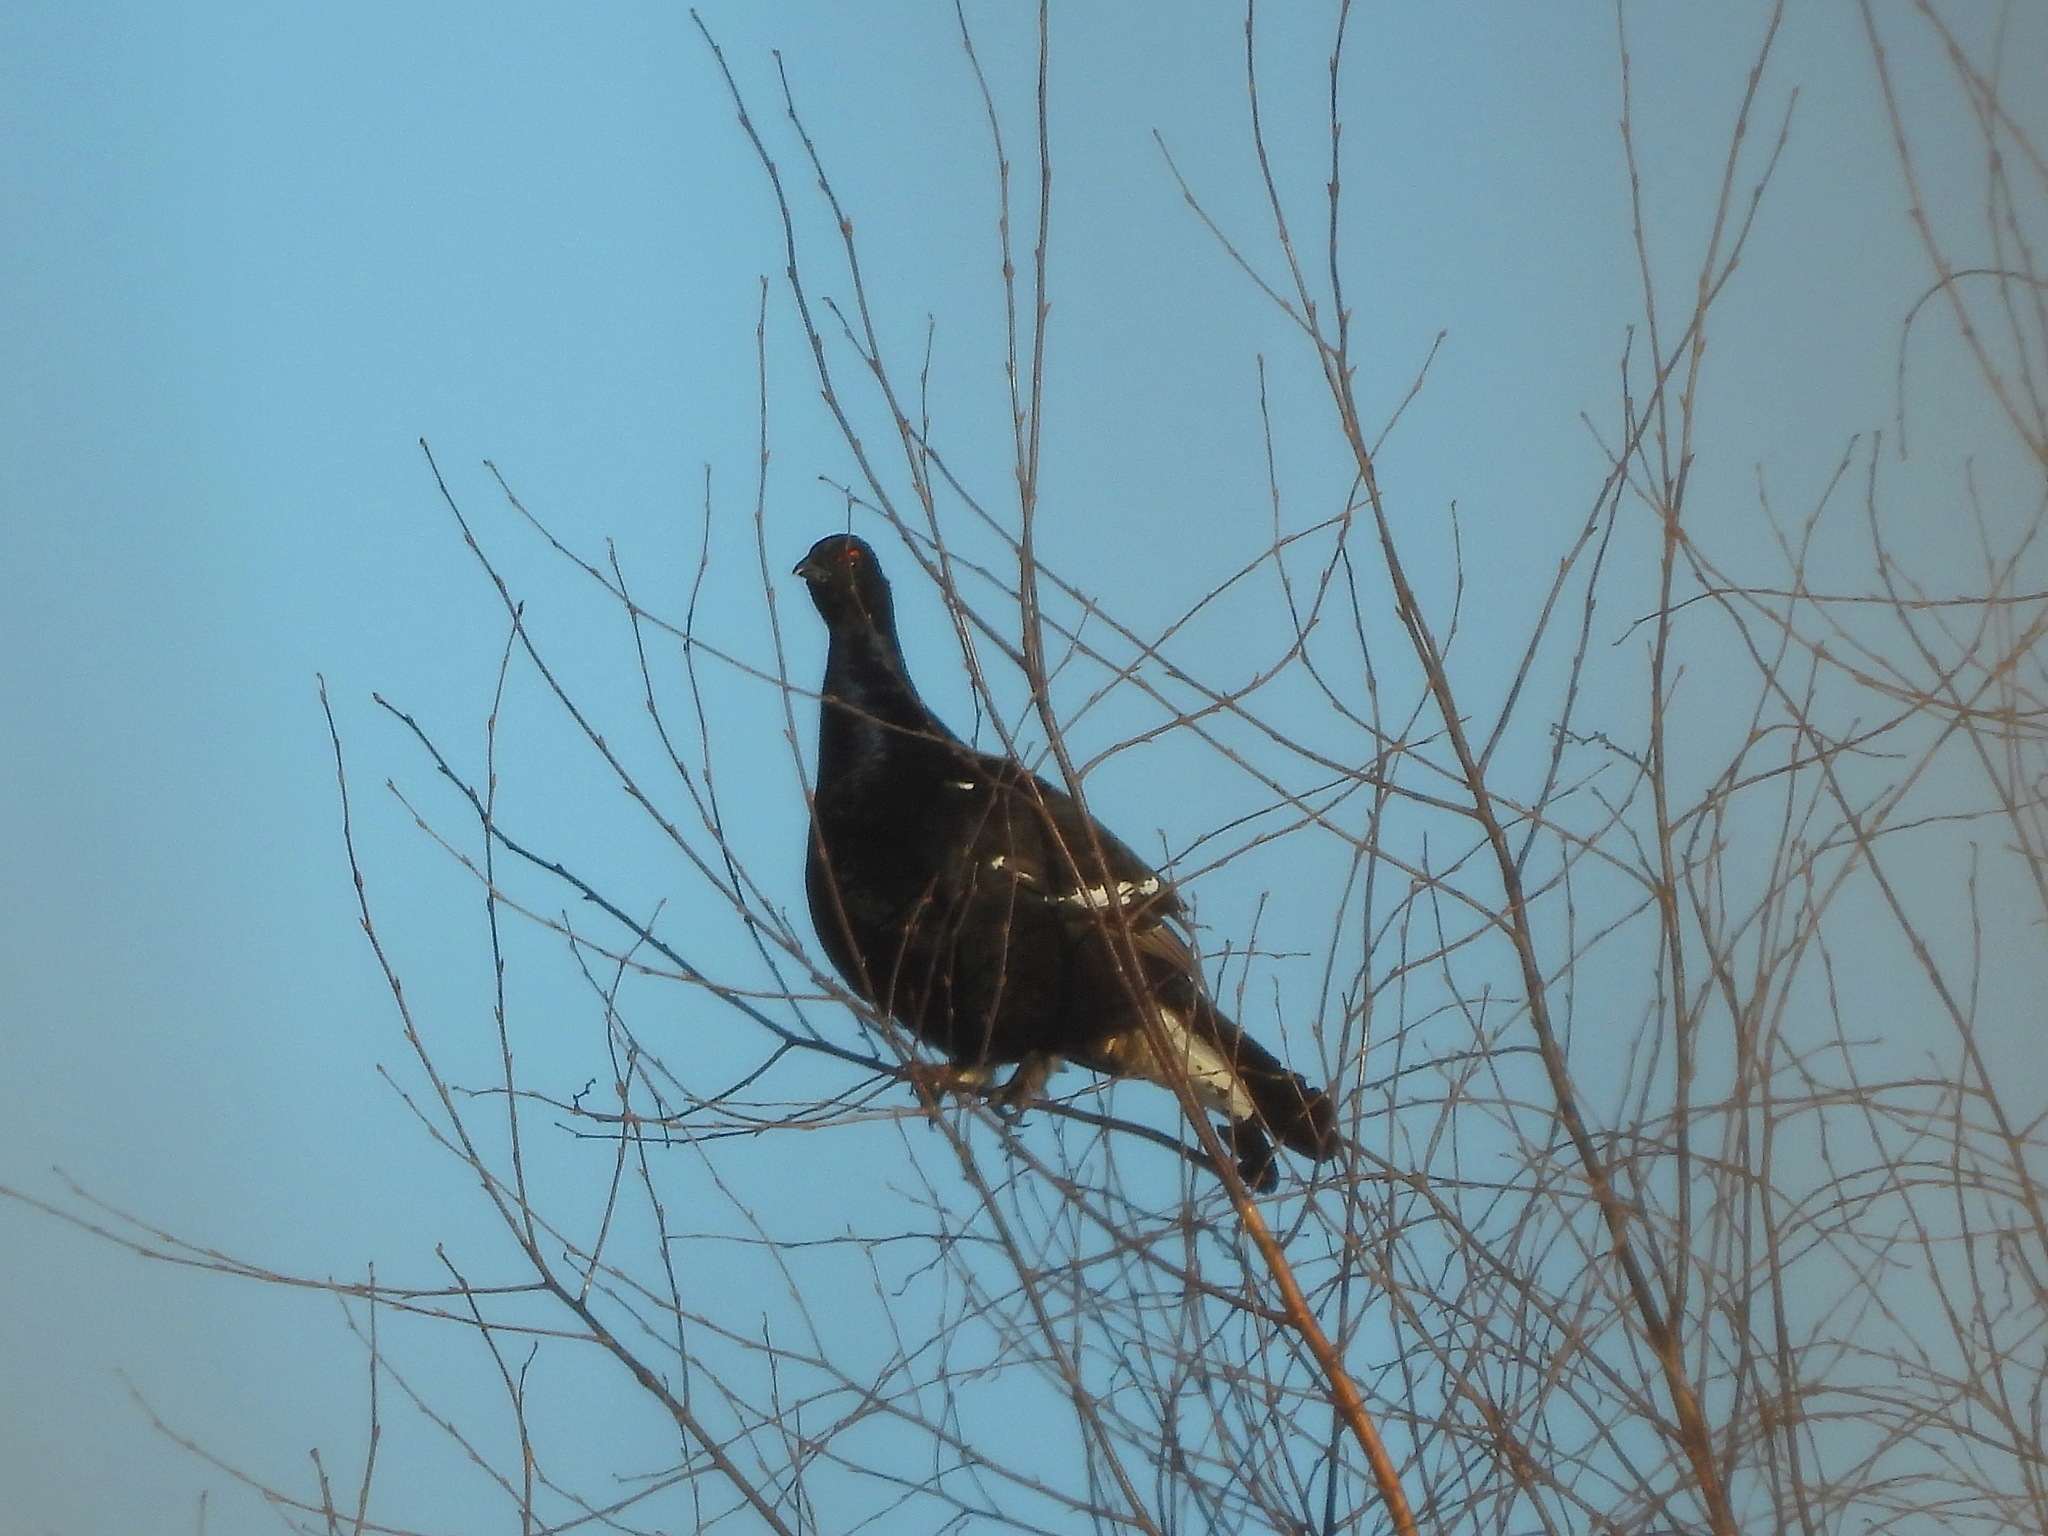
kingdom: Animalia
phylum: Chordata
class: Aves
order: Galliformes
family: Phasianidae
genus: Lyrurus
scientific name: Lyrurus tetrix
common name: Black grouse
